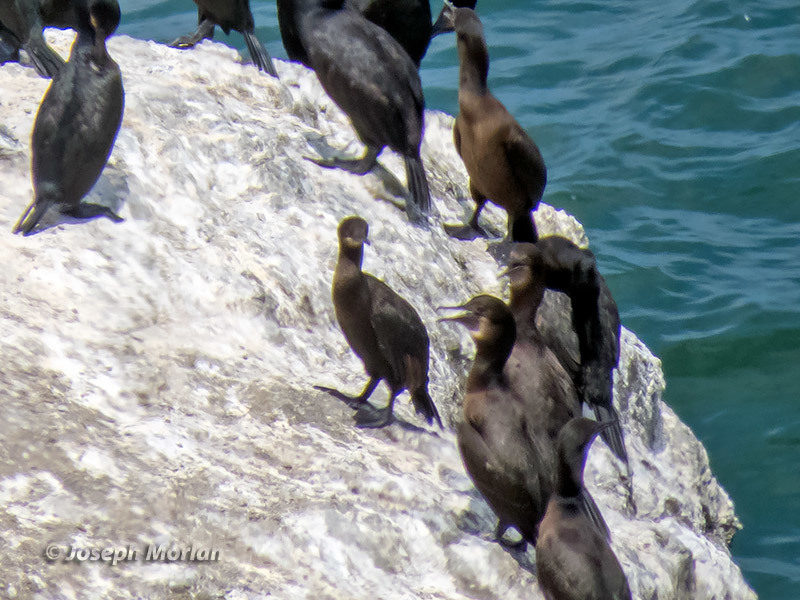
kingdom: Animalia
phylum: Chordata
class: Aves
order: Suliformes
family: Phalacrocoracidae
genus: Urile
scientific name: Urile penicillatus
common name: Brandt's cormorant
